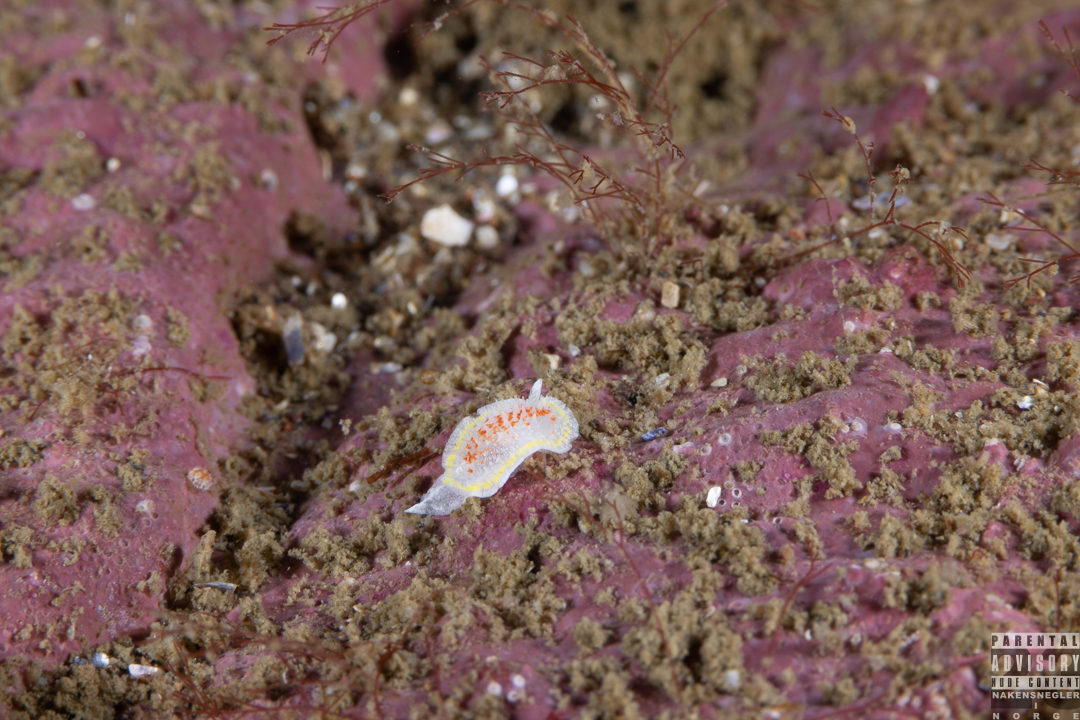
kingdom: Animalia
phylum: Mollusca
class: Gastropoda
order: Nudibranchia
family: Calycidorididae
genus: Diaphorodoris
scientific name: Diaphorodoris luteocincta
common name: Fried egg nudibranch
